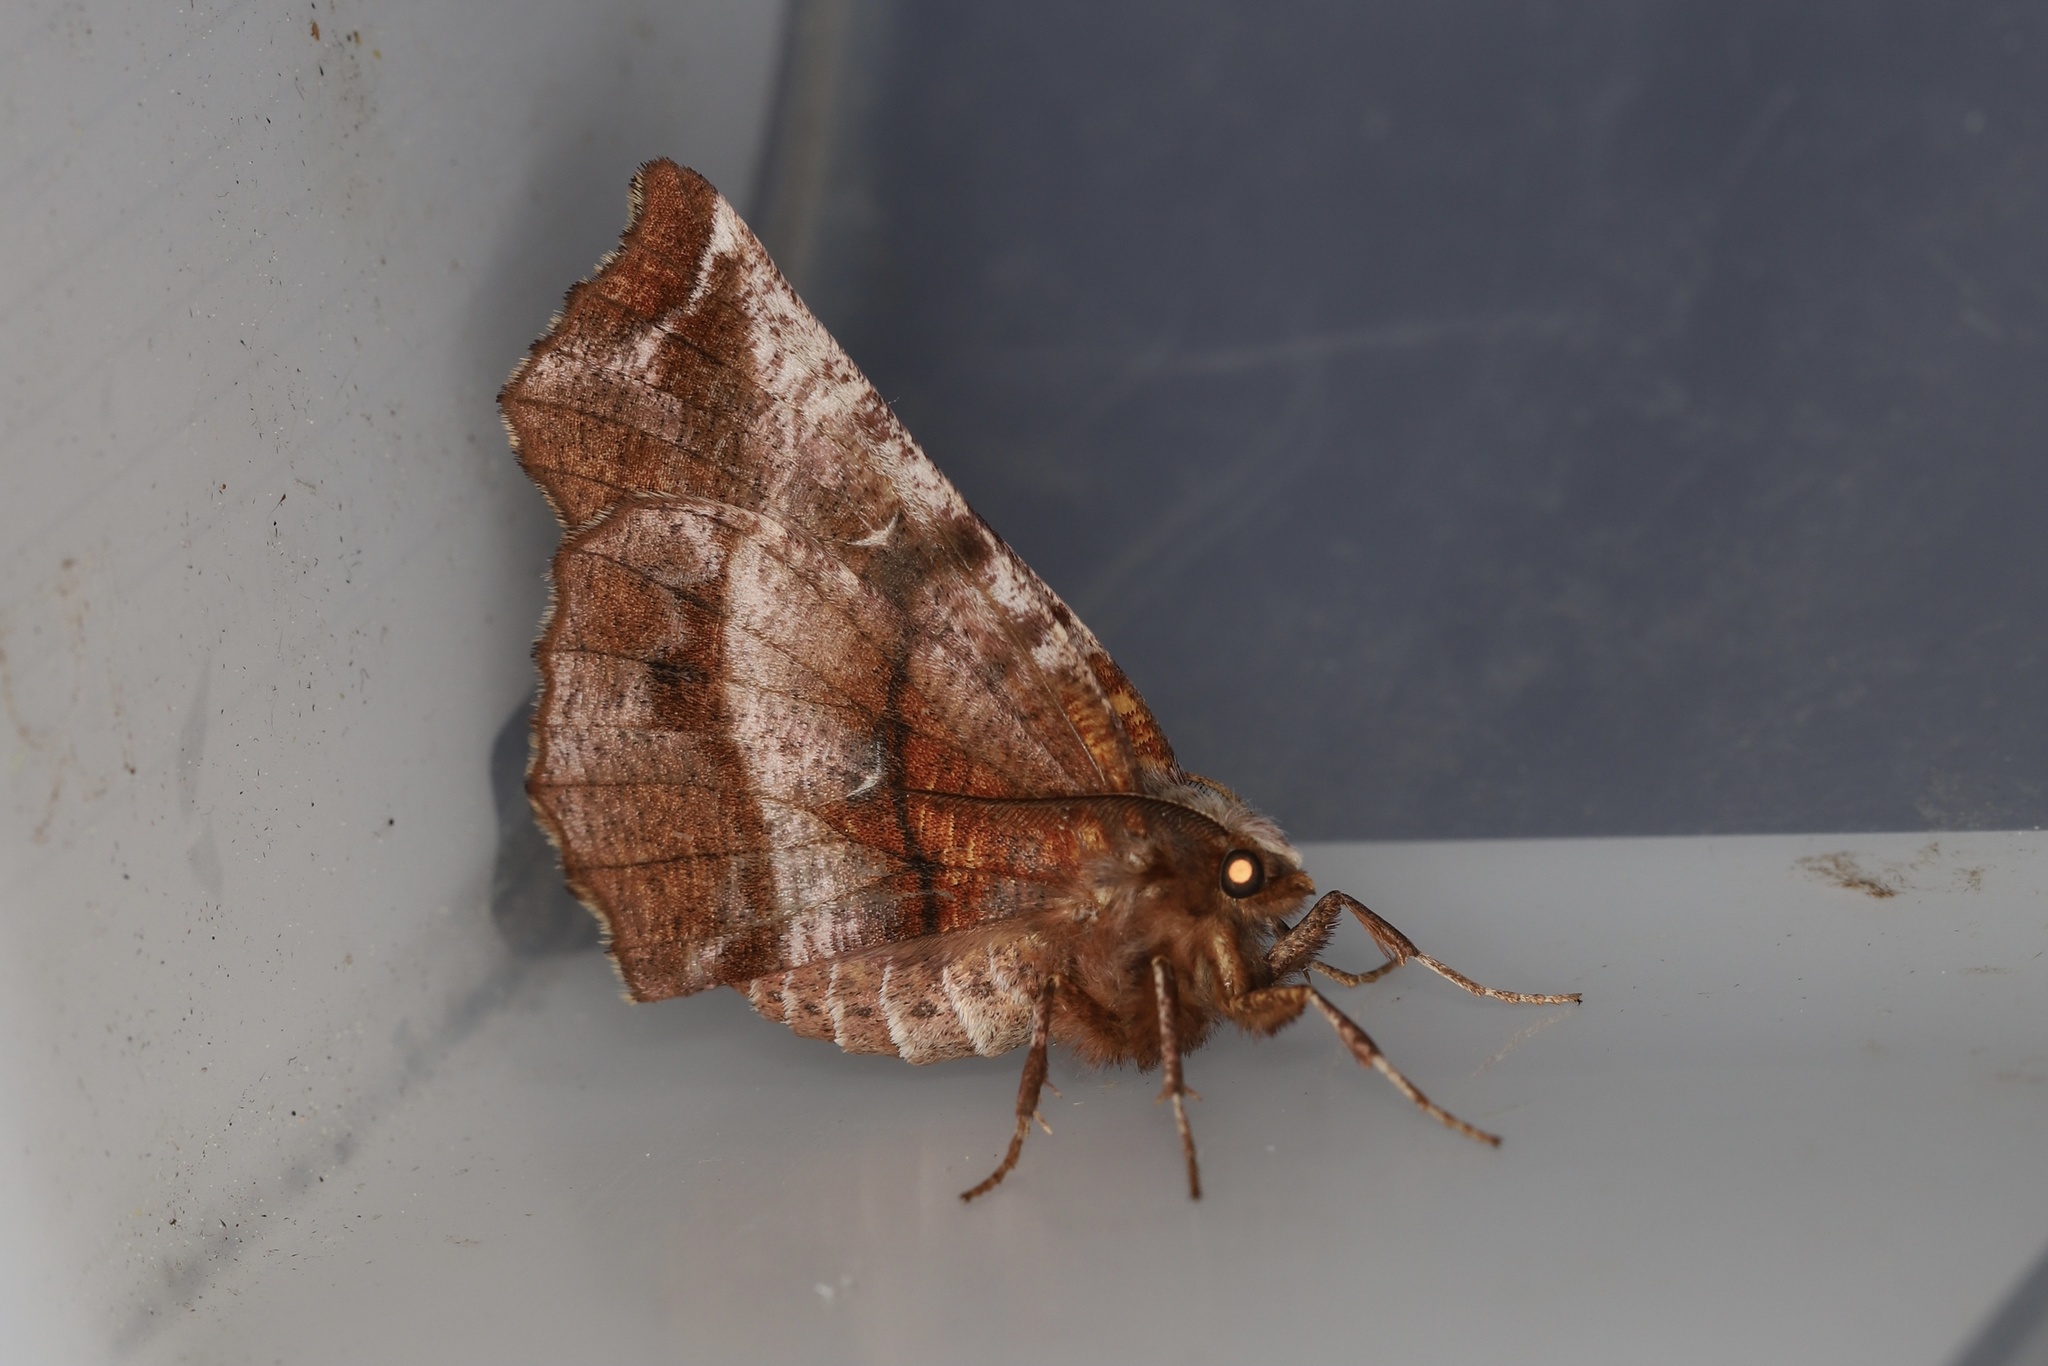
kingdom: Animalia
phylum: Arthropoda
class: Insecta
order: Lepidoptera
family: Geometridae
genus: Selenia
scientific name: Selenia dentaria
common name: Early thorn
